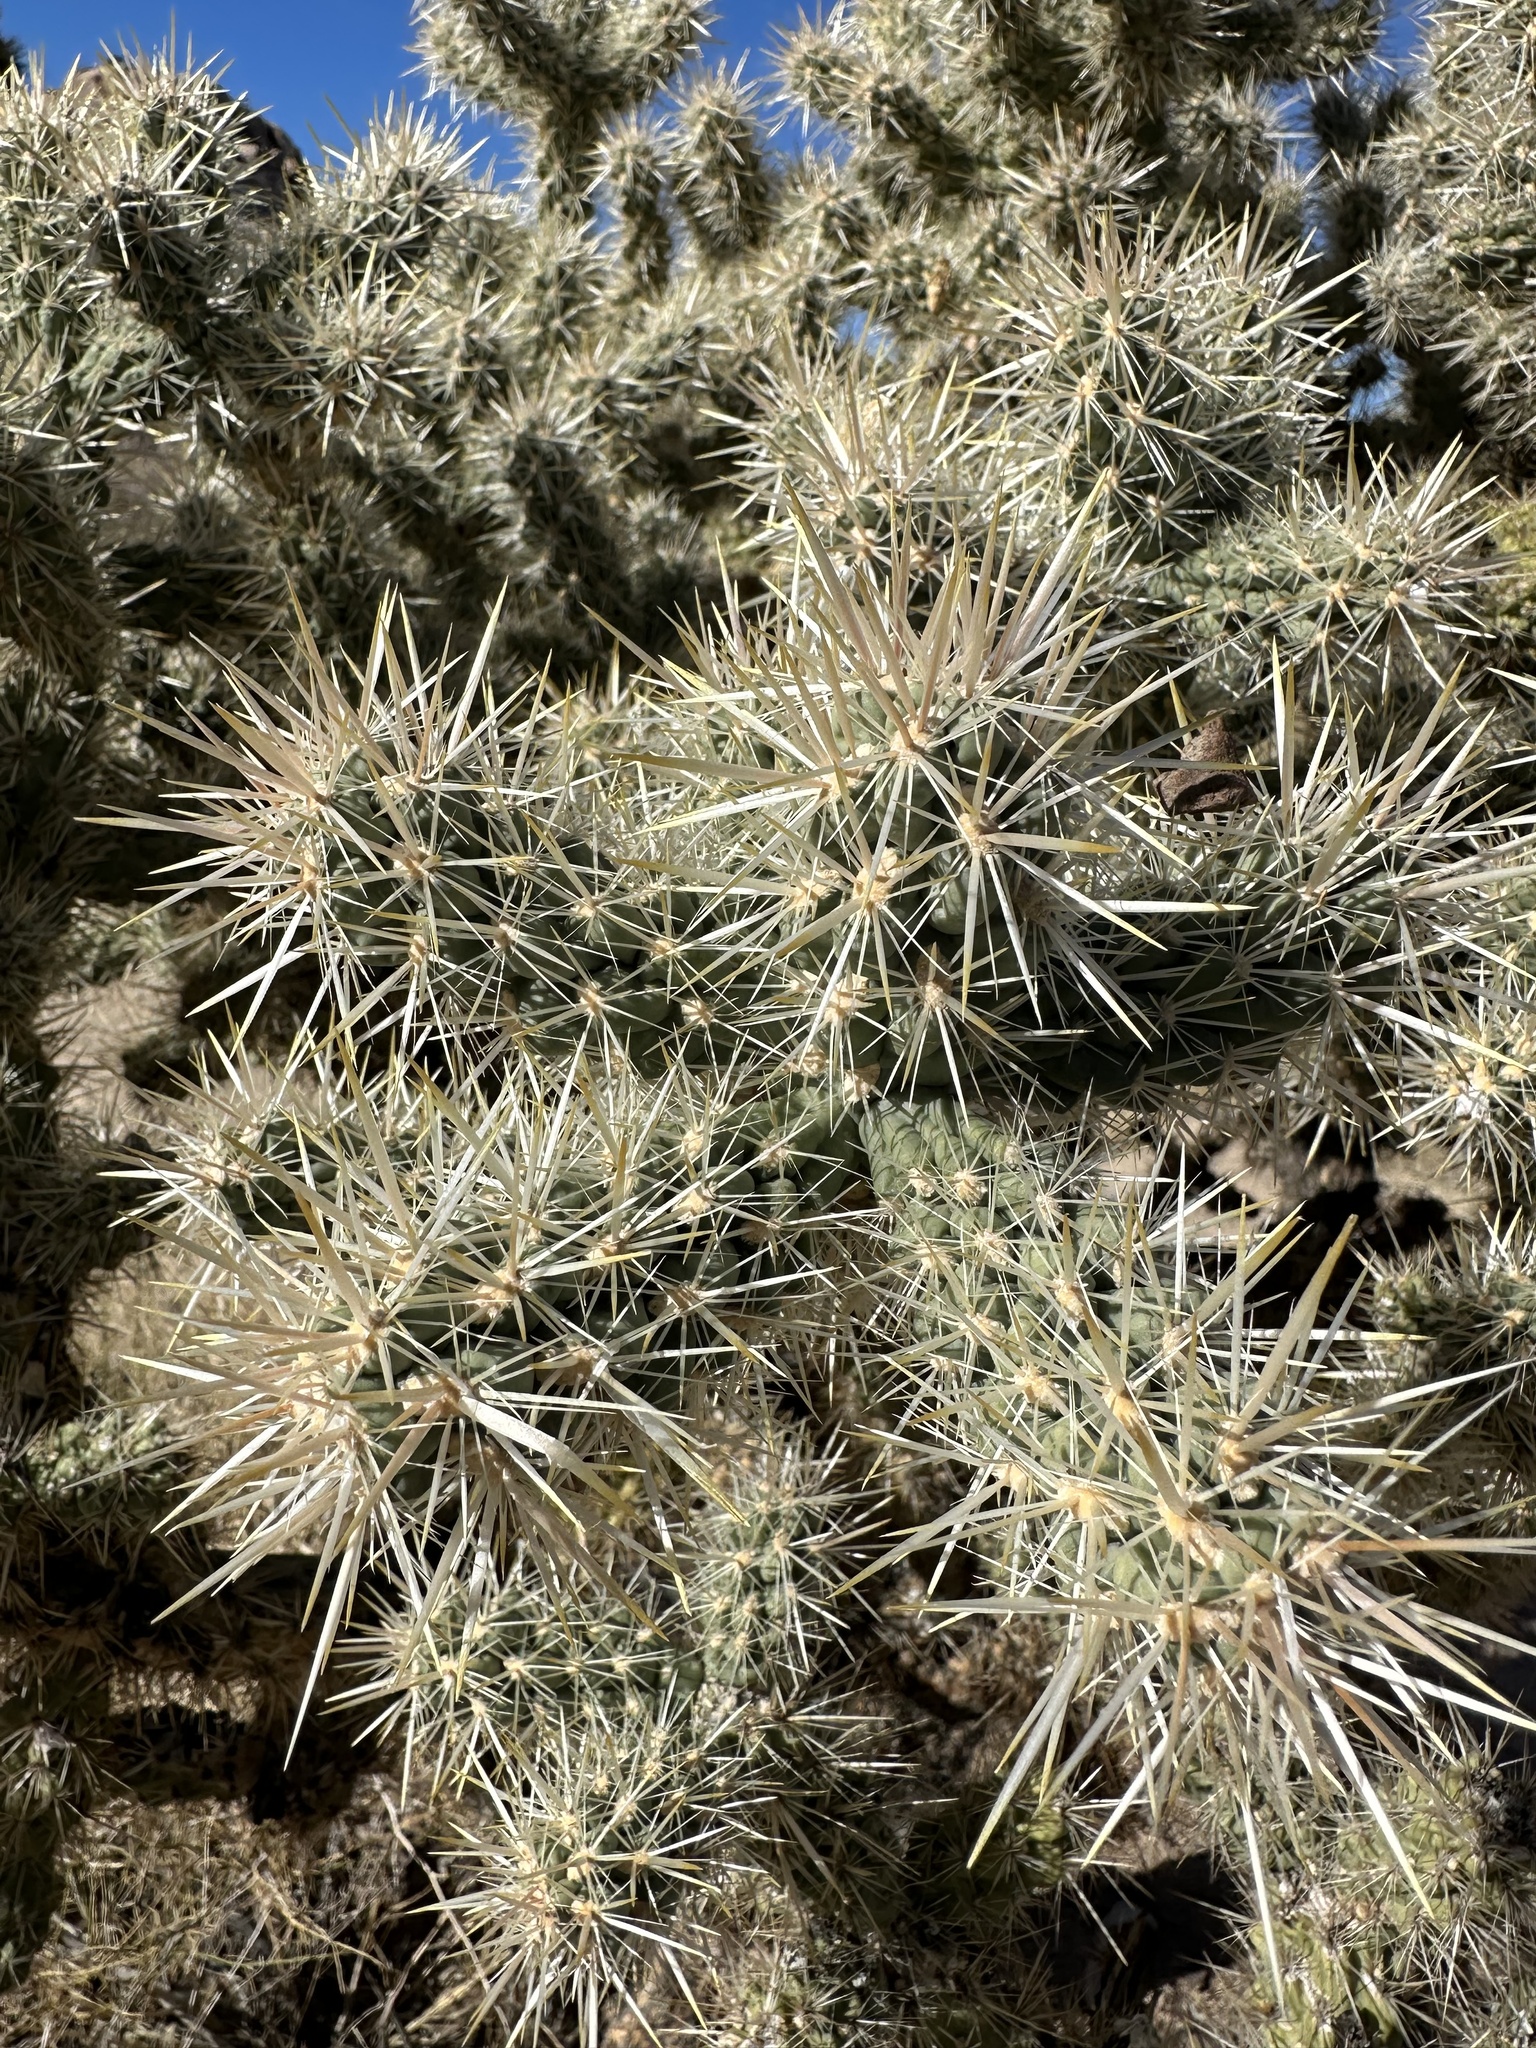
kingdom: Plantae
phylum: Tracheophyta
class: Magnoliopsida
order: Caryophyllales
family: Cactaceae
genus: Cylindropuntia
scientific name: Cylindropuntia echinocarpa
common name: Ground cholla
